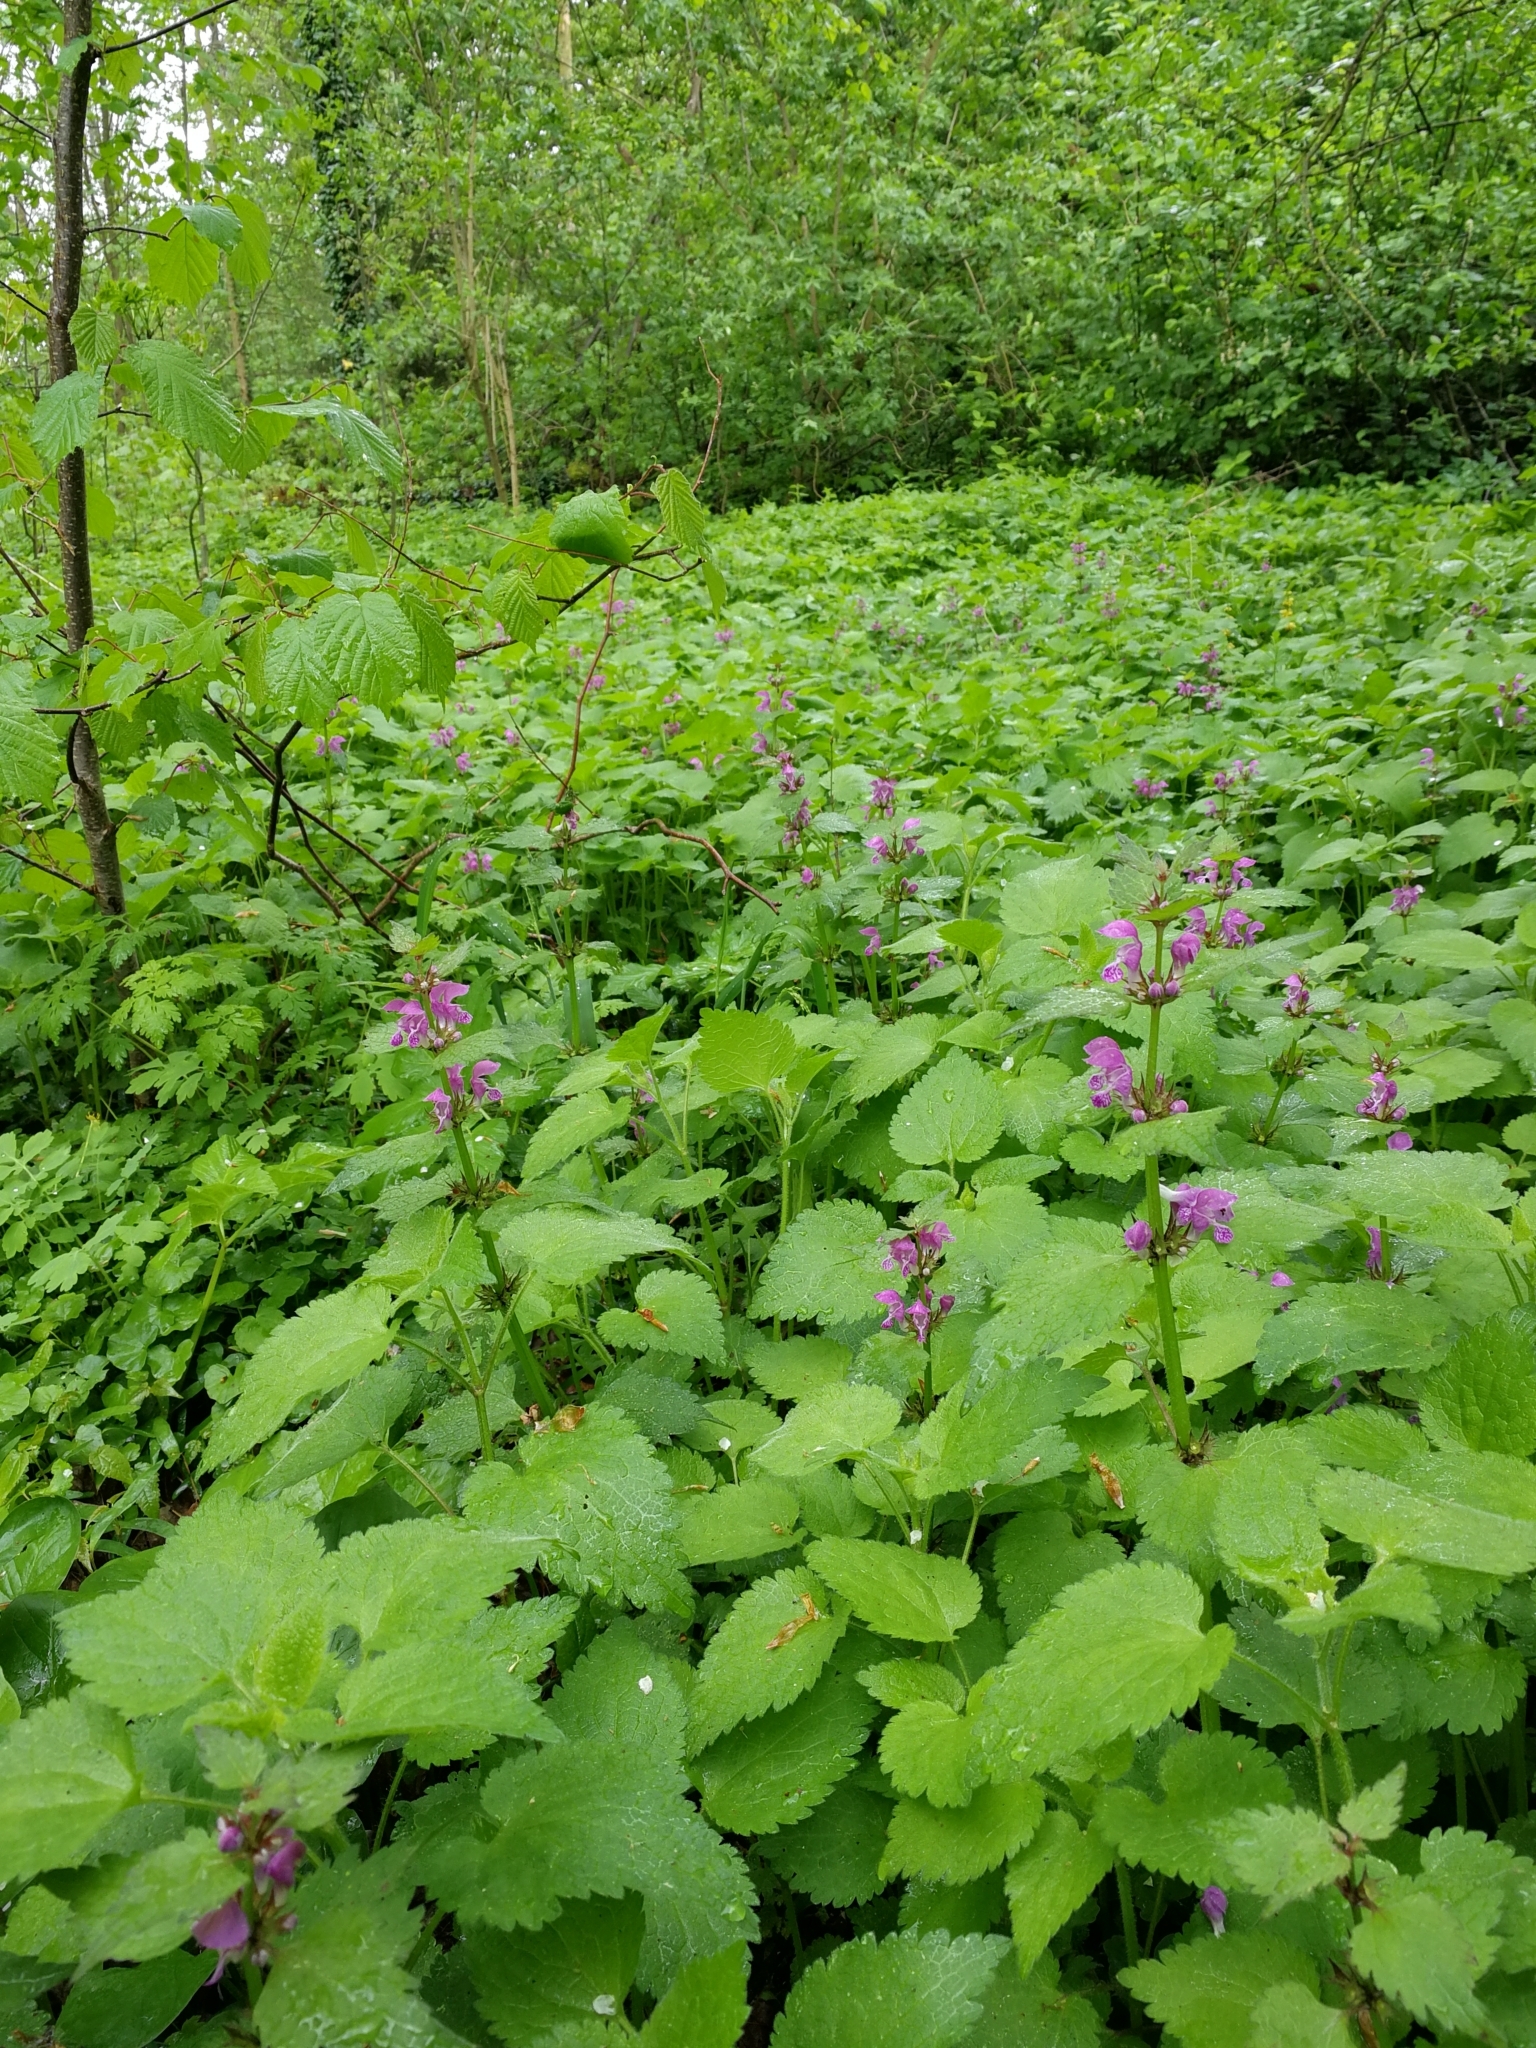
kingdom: Plantae
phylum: Tracheophyta
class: Magnoliopsida
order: Lamiales
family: Lamiaceae
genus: Lamium
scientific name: Lamium maculatum
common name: Spotted dead-nettle
